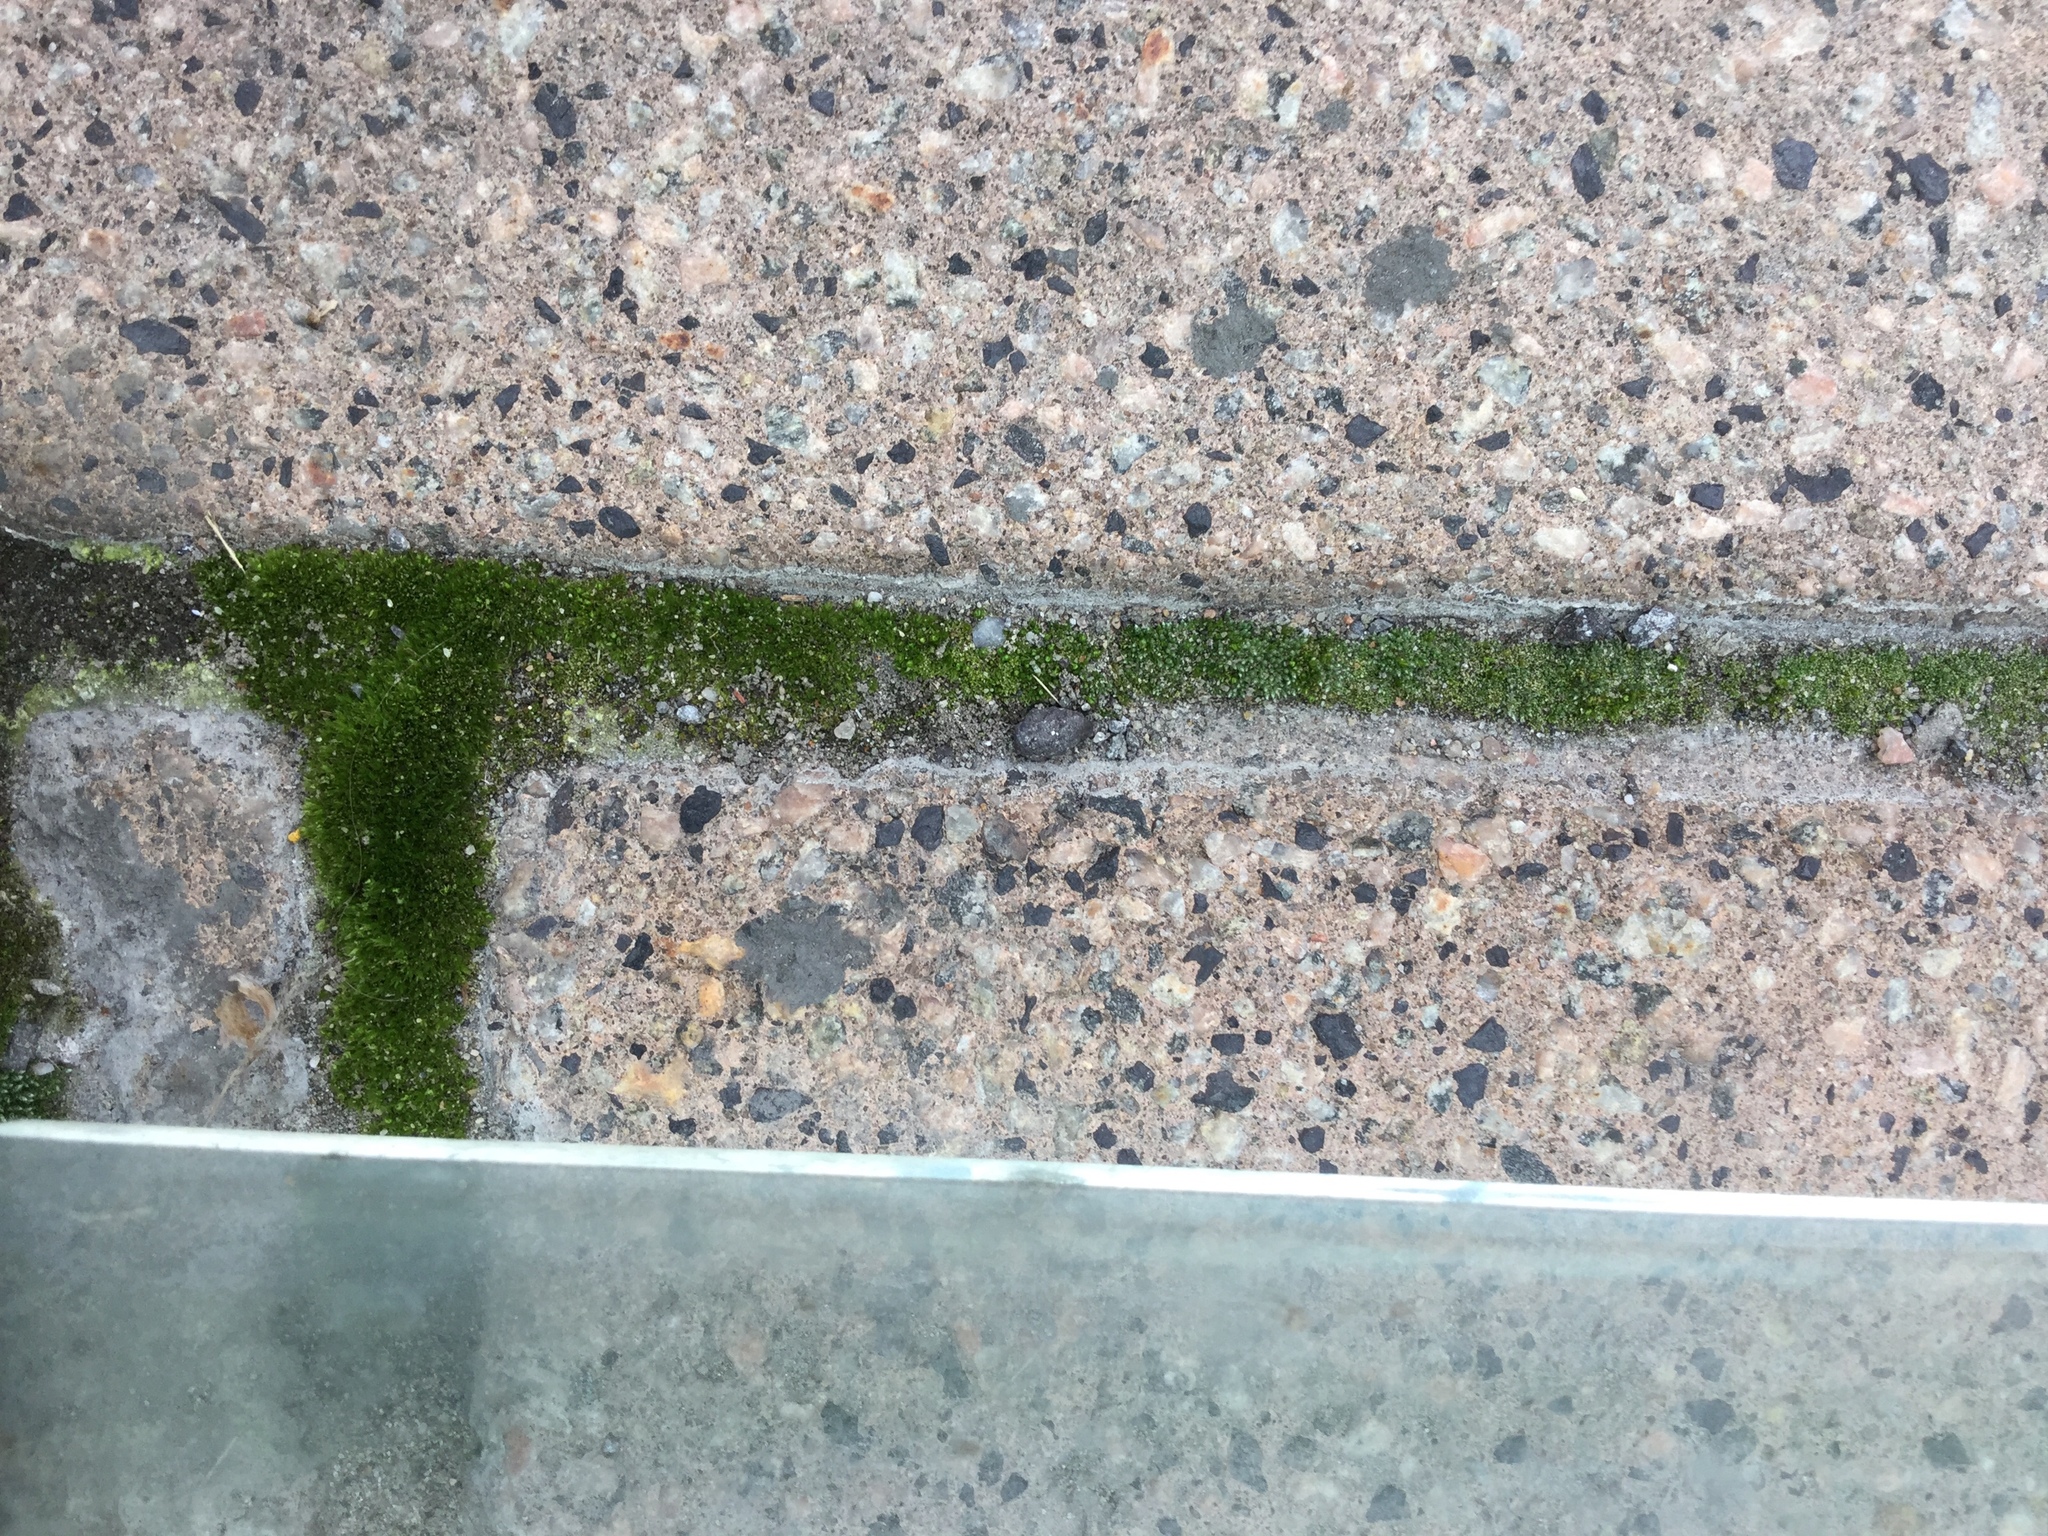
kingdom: Plantae
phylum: Bryophyta
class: Bryopsida
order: Bryales
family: Bryaceae
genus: Bryum
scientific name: Bryum argenteum
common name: Silver-moss
